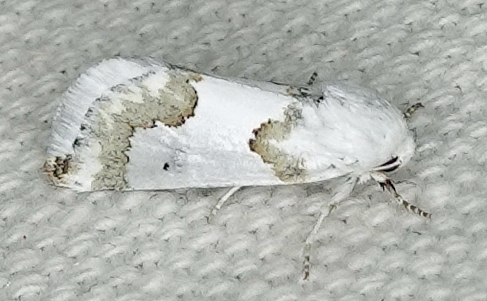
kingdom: Animalia
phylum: Arthropoda
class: Insecta
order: Lepidoptera
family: Noctuidae
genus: Schinia
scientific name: Schinia cumatilis
